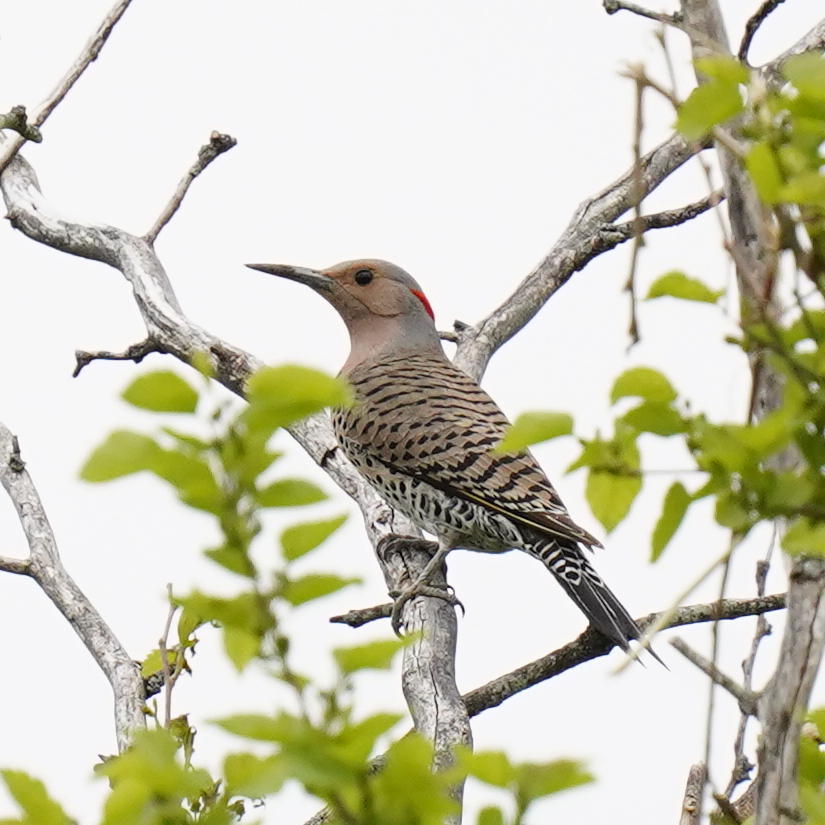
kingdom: Animalia
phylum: Chordata
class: Aves
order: Piciformes
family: Picidae
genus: Colaptes
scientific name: Colaptes auratus
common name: Northern flicker
